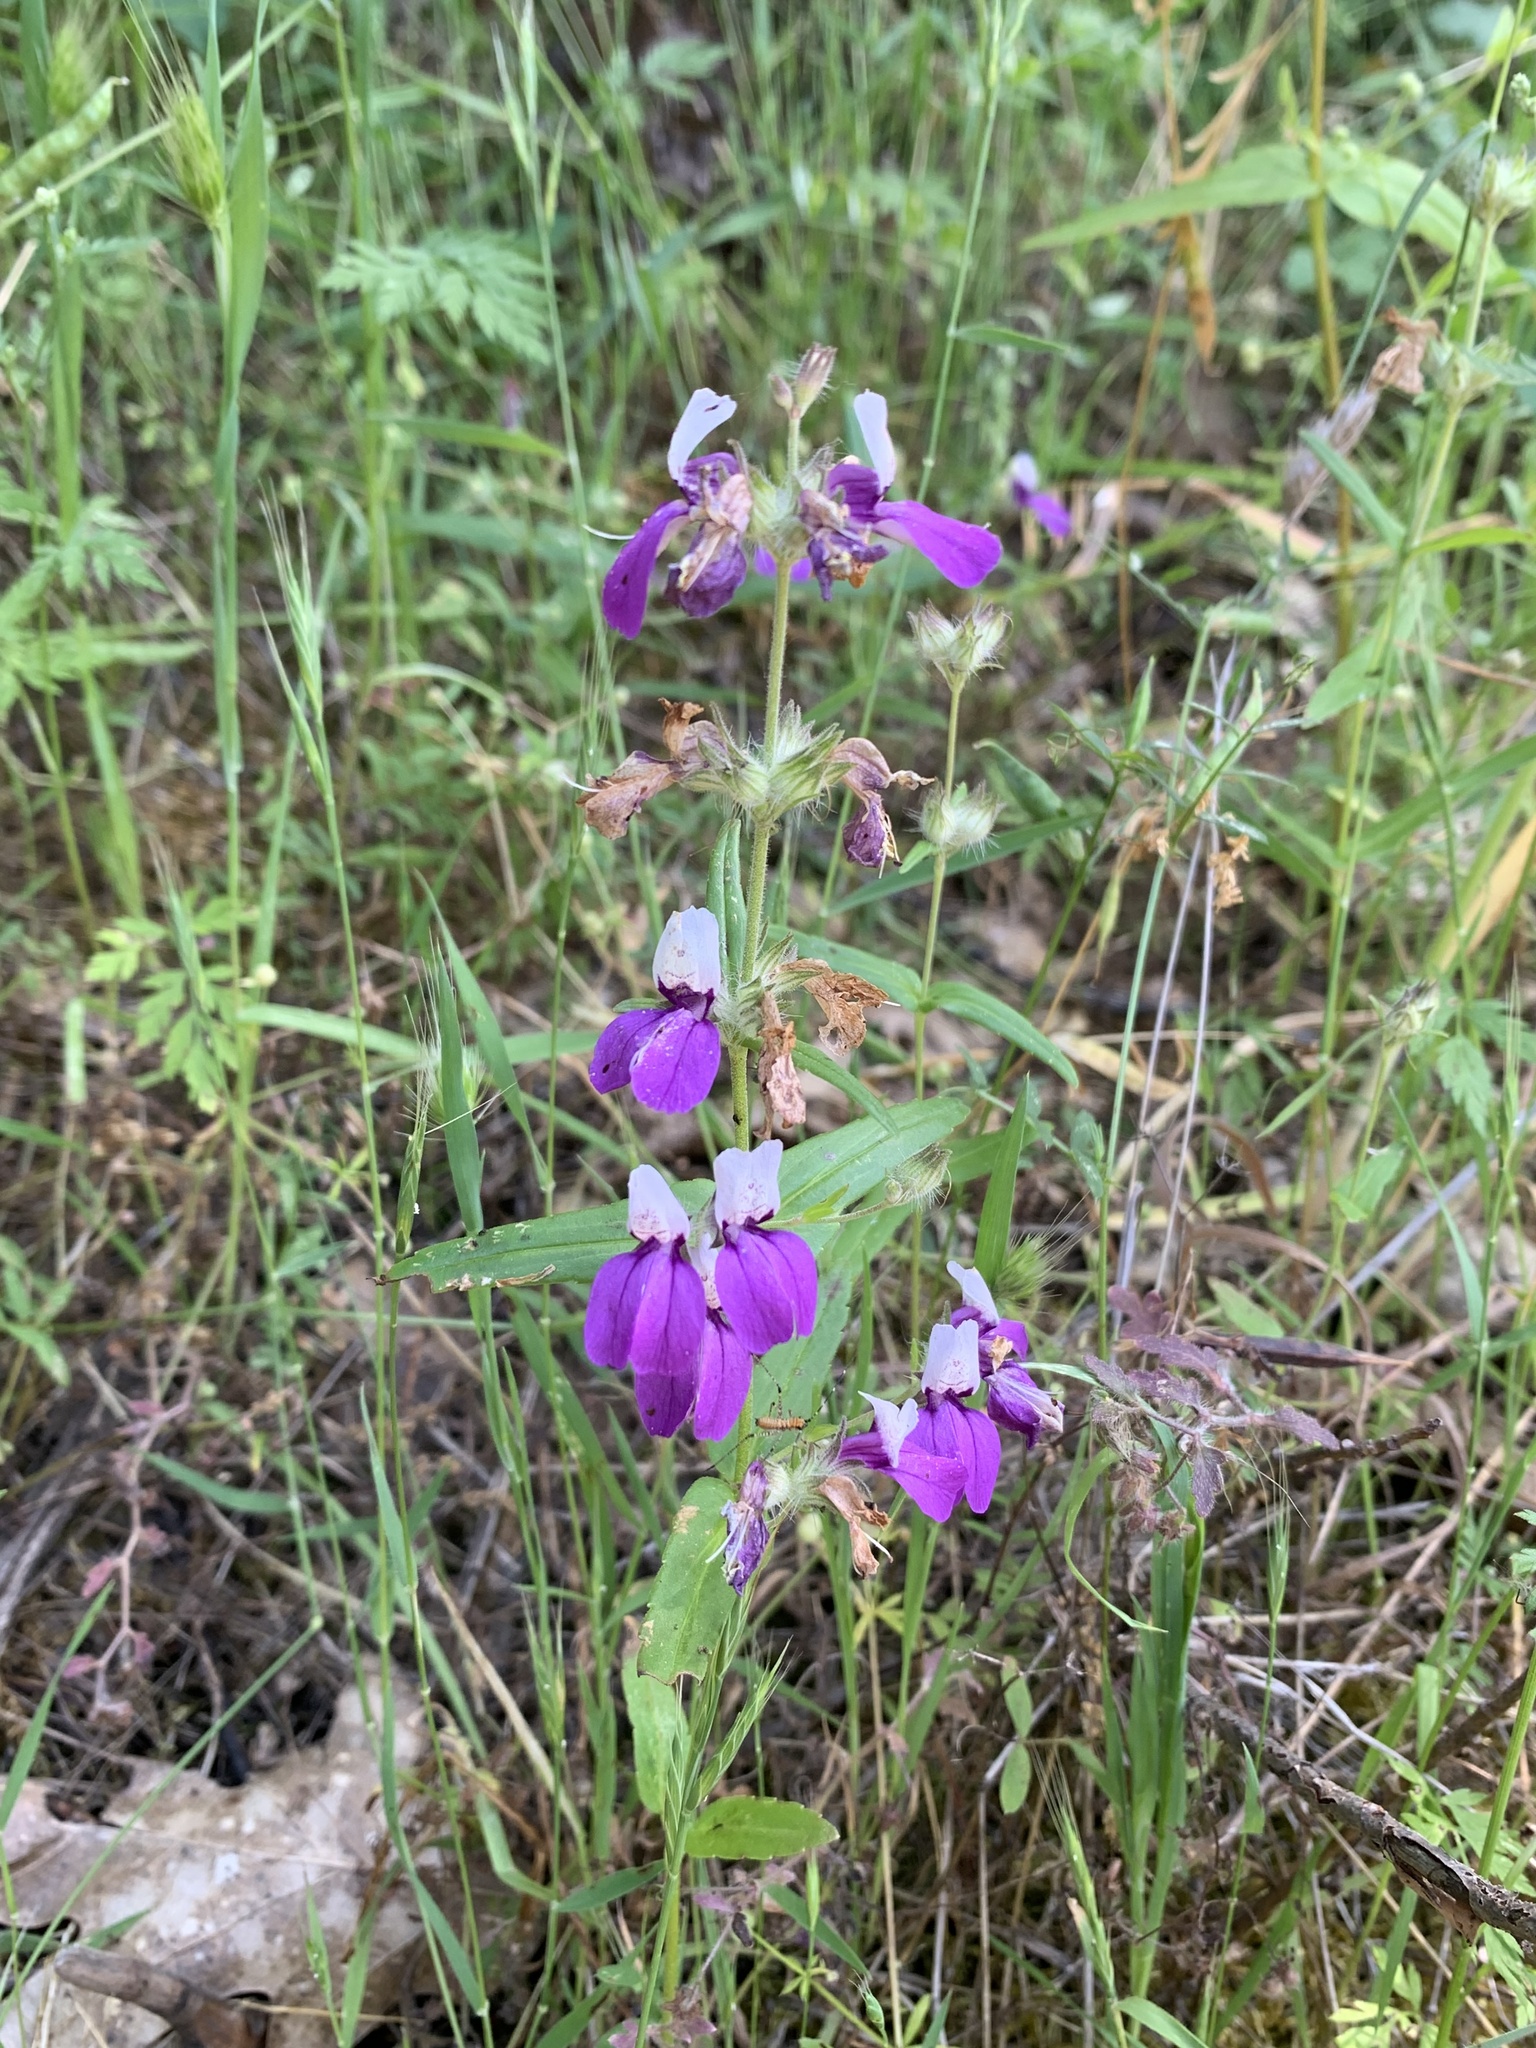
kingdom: Plantae
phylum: Tracheophyta
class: Magnoliopsida
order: Lamiales
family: Plantaginaceae
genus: Collinsia
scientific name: Collinsia heterophylla
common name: Chinese-houses
